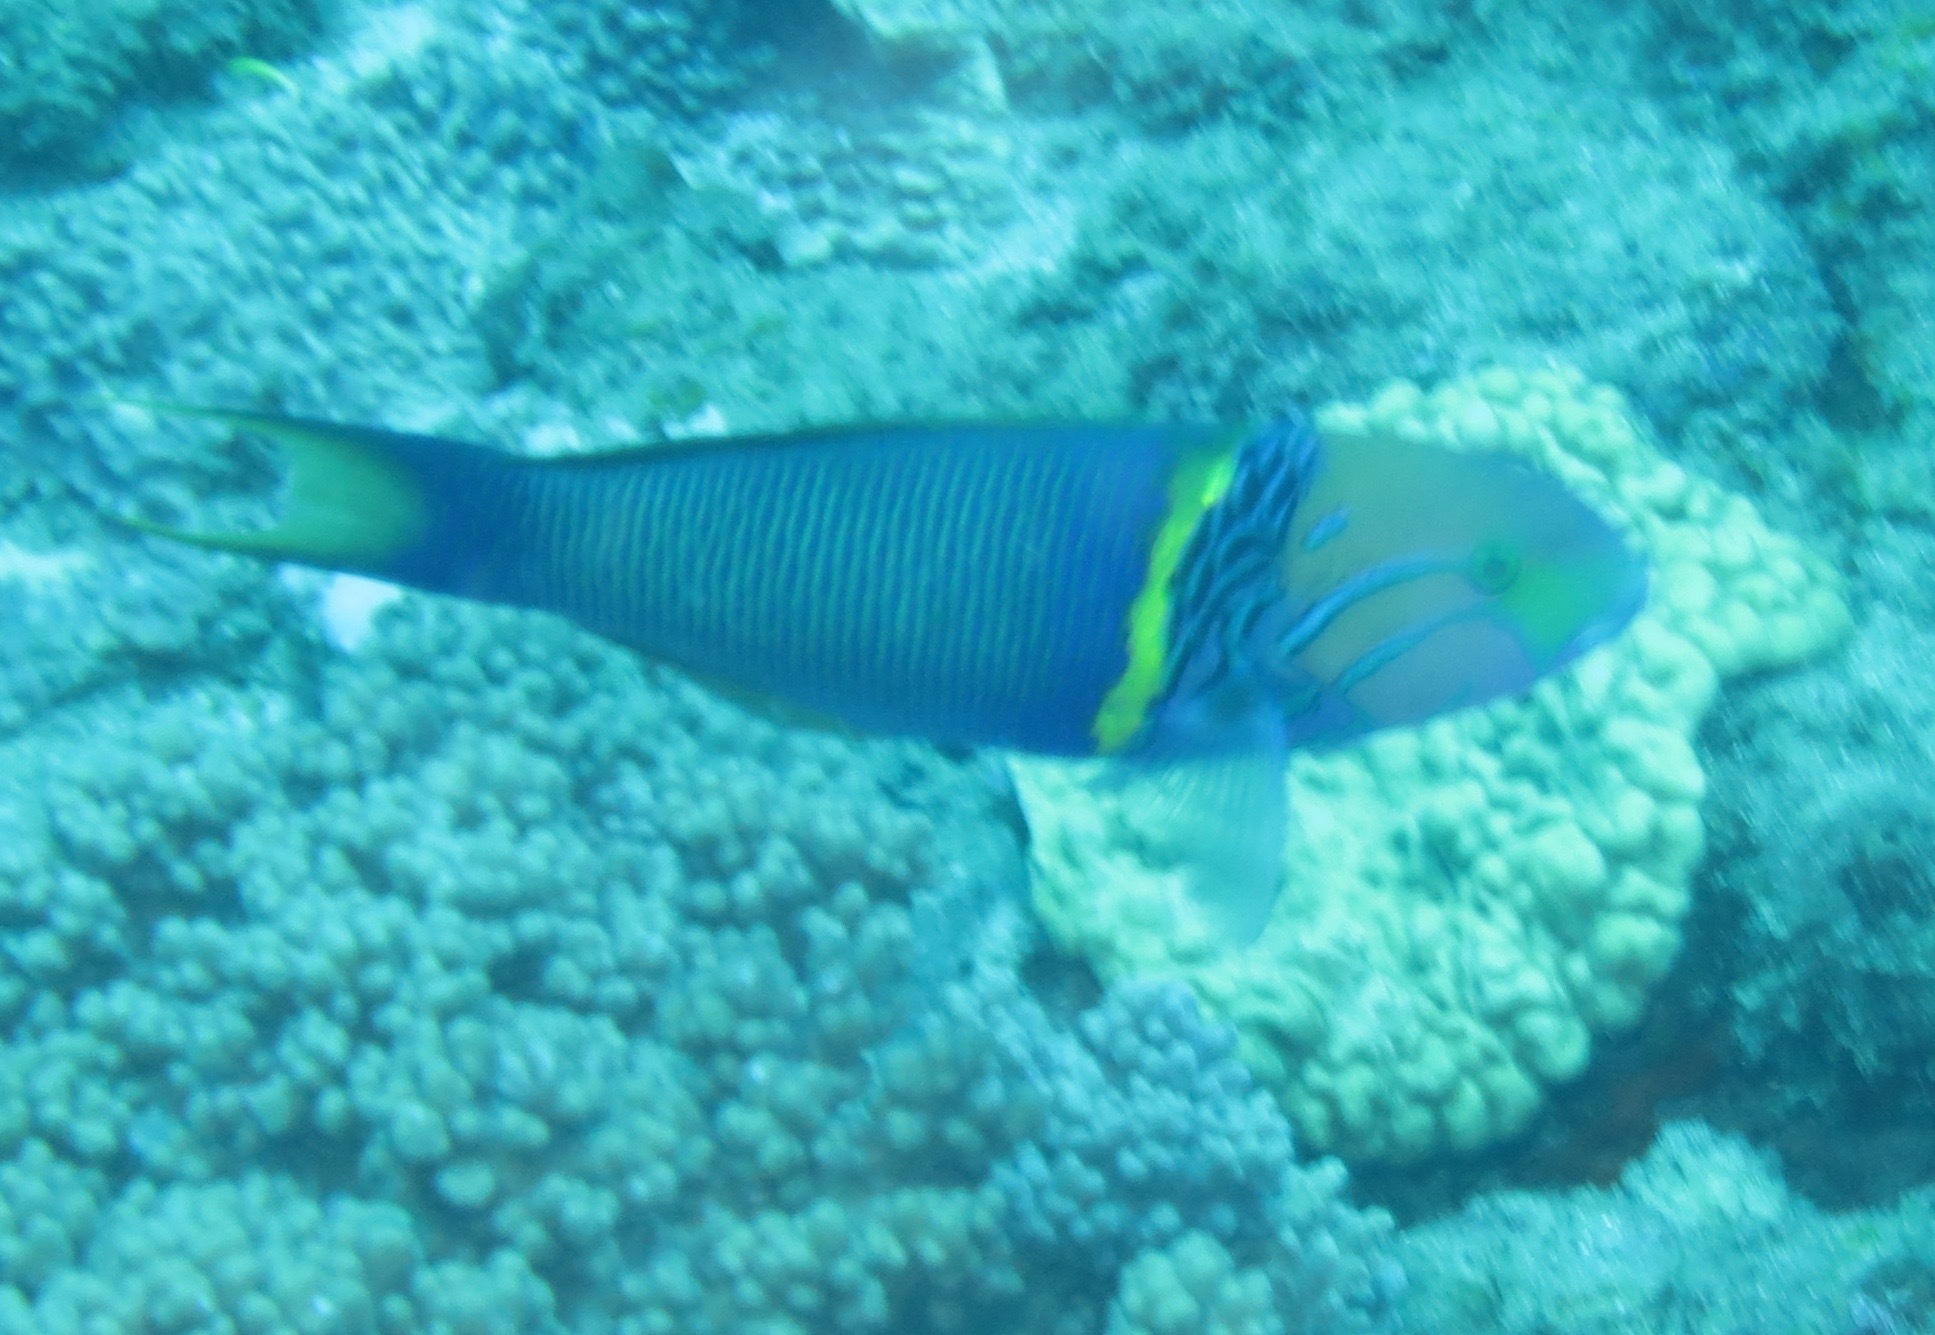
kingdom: Animalia
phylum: Chordata
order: Perciformes
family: Labridae
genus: Thalassoma
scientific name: Thalassoma hebraicum
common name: Goldbar wrasse
